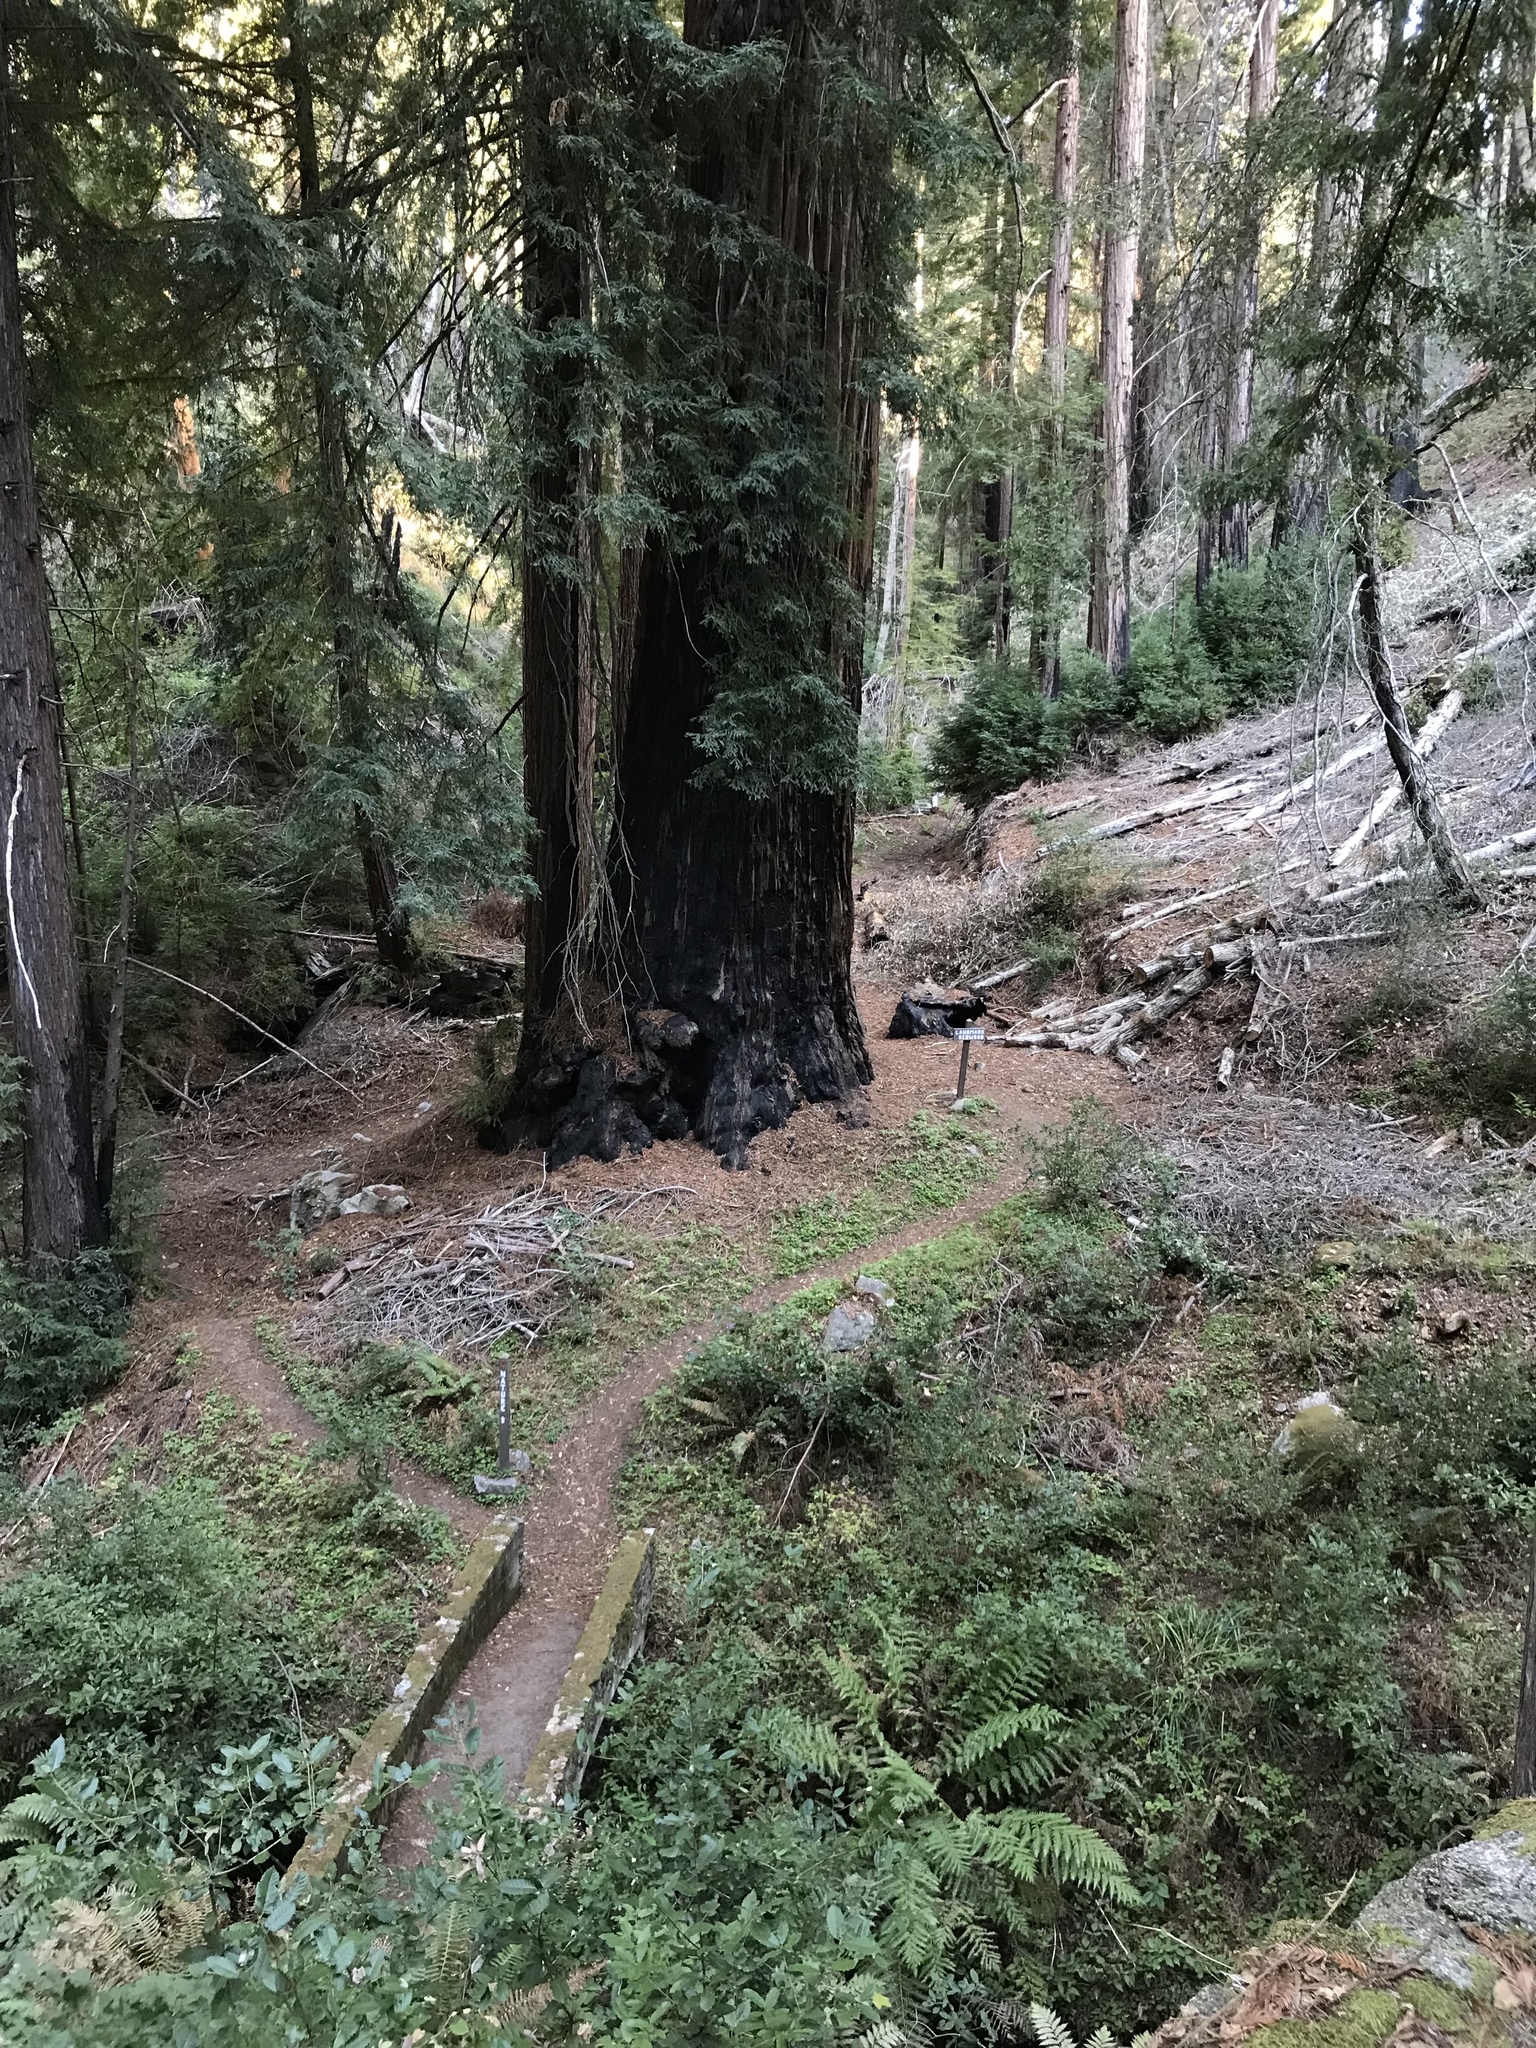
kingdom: Plantae
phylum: Tracheophyta
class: Pinopsida
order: Pinales
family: Cupressaceae
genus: Sequoia
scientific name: Sequoia sempervirens
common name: Coast redwood
